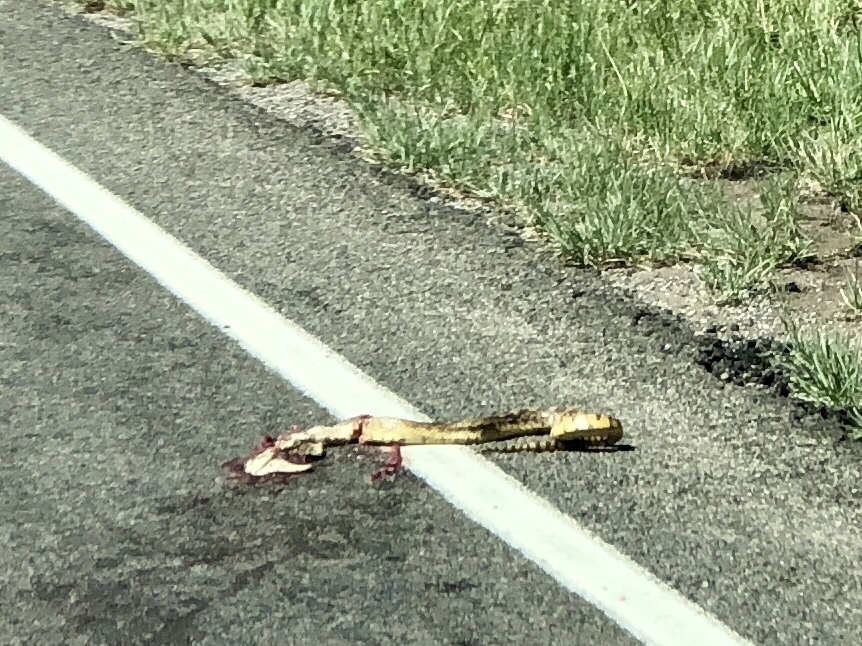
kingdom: Animalia
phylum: Chordata
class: Squamata
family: Colubridae
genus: Pituophis
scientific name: Pituophis catenifer
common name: Gopher snake
